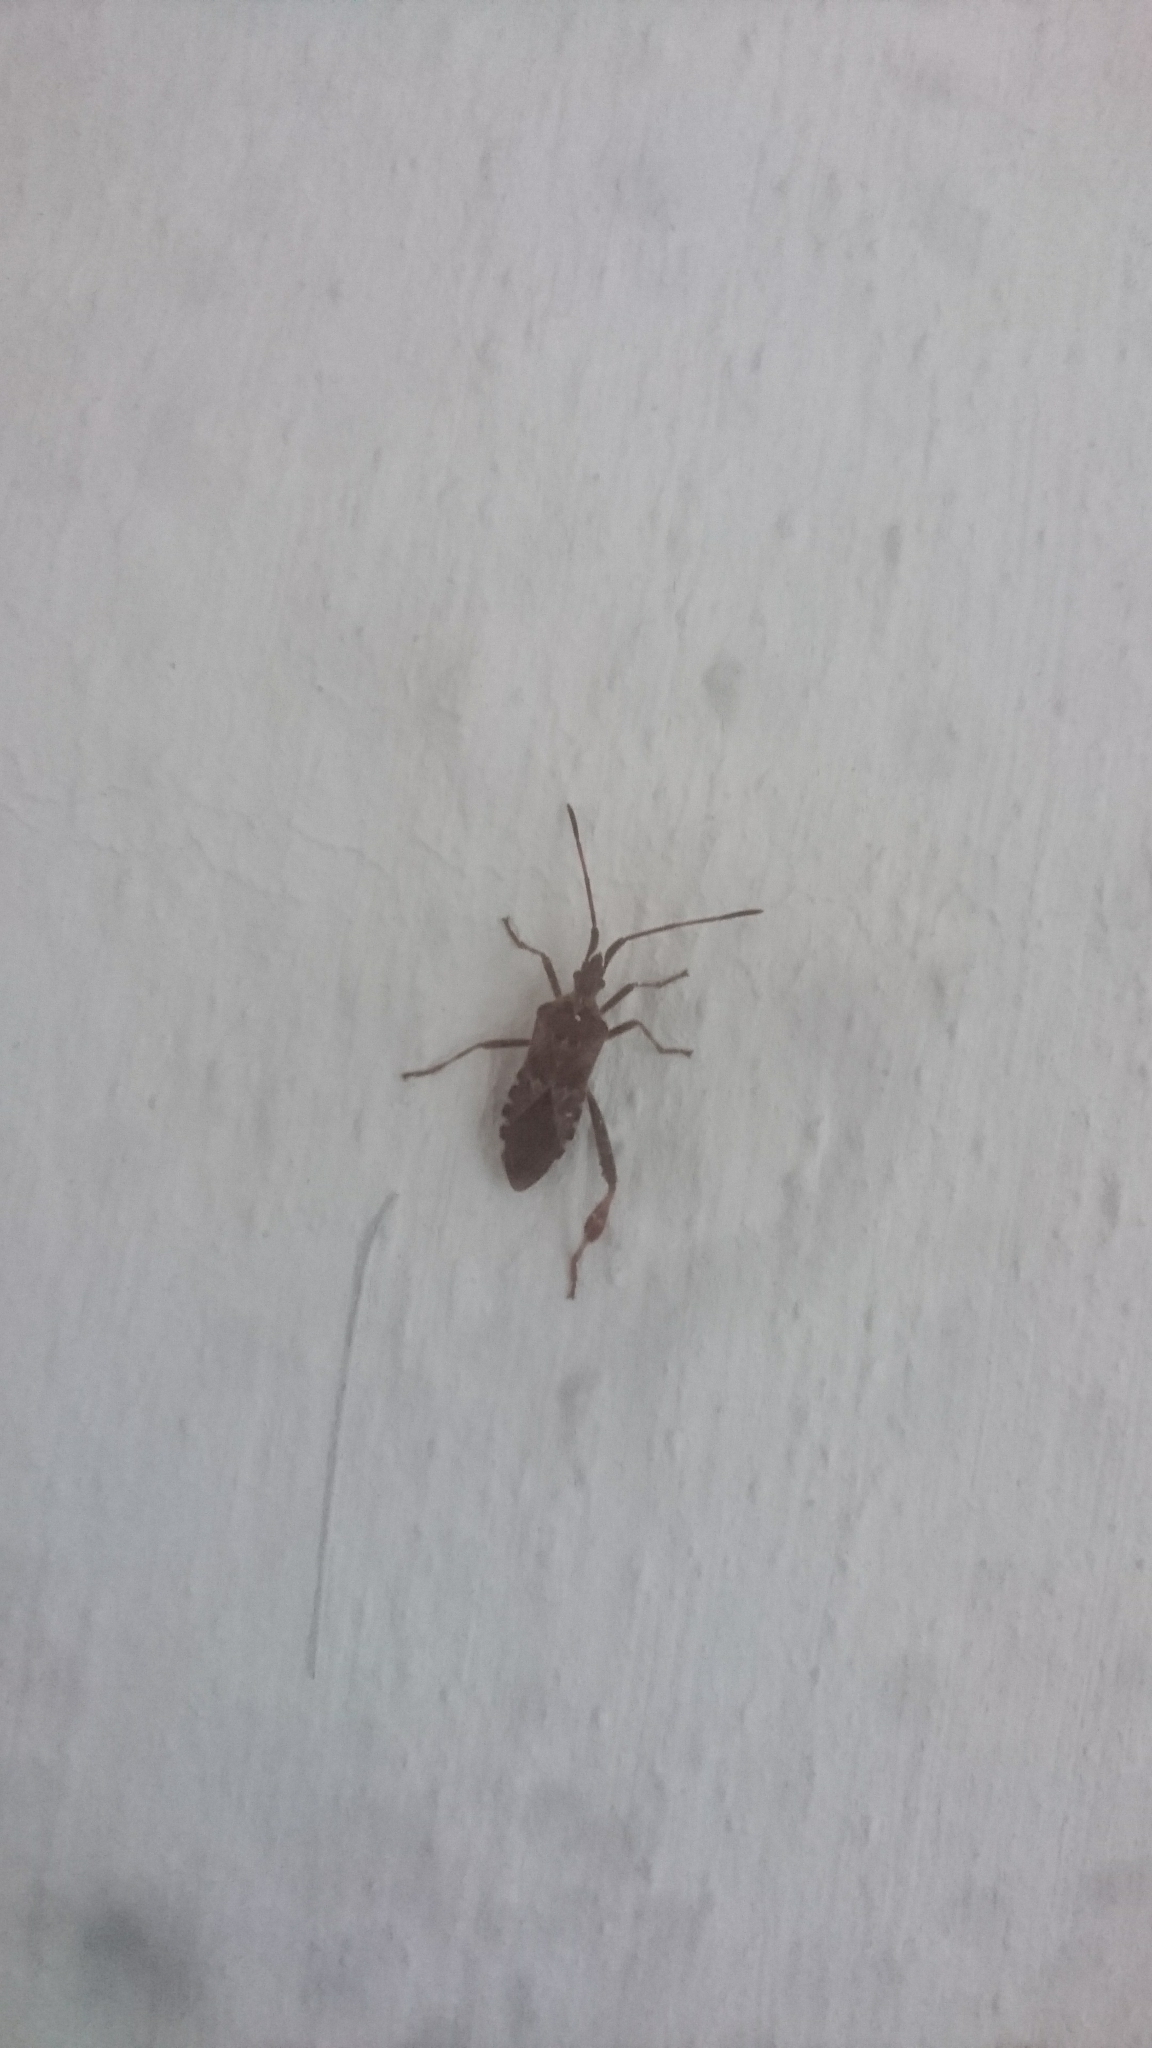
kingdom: Animalia
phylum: Arthropoda
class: Insecta
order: Hemiptera
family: Coreidae
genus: Leptoglossus
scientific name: Leptoglossus occidentalis
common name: Western conifer-seed bug
